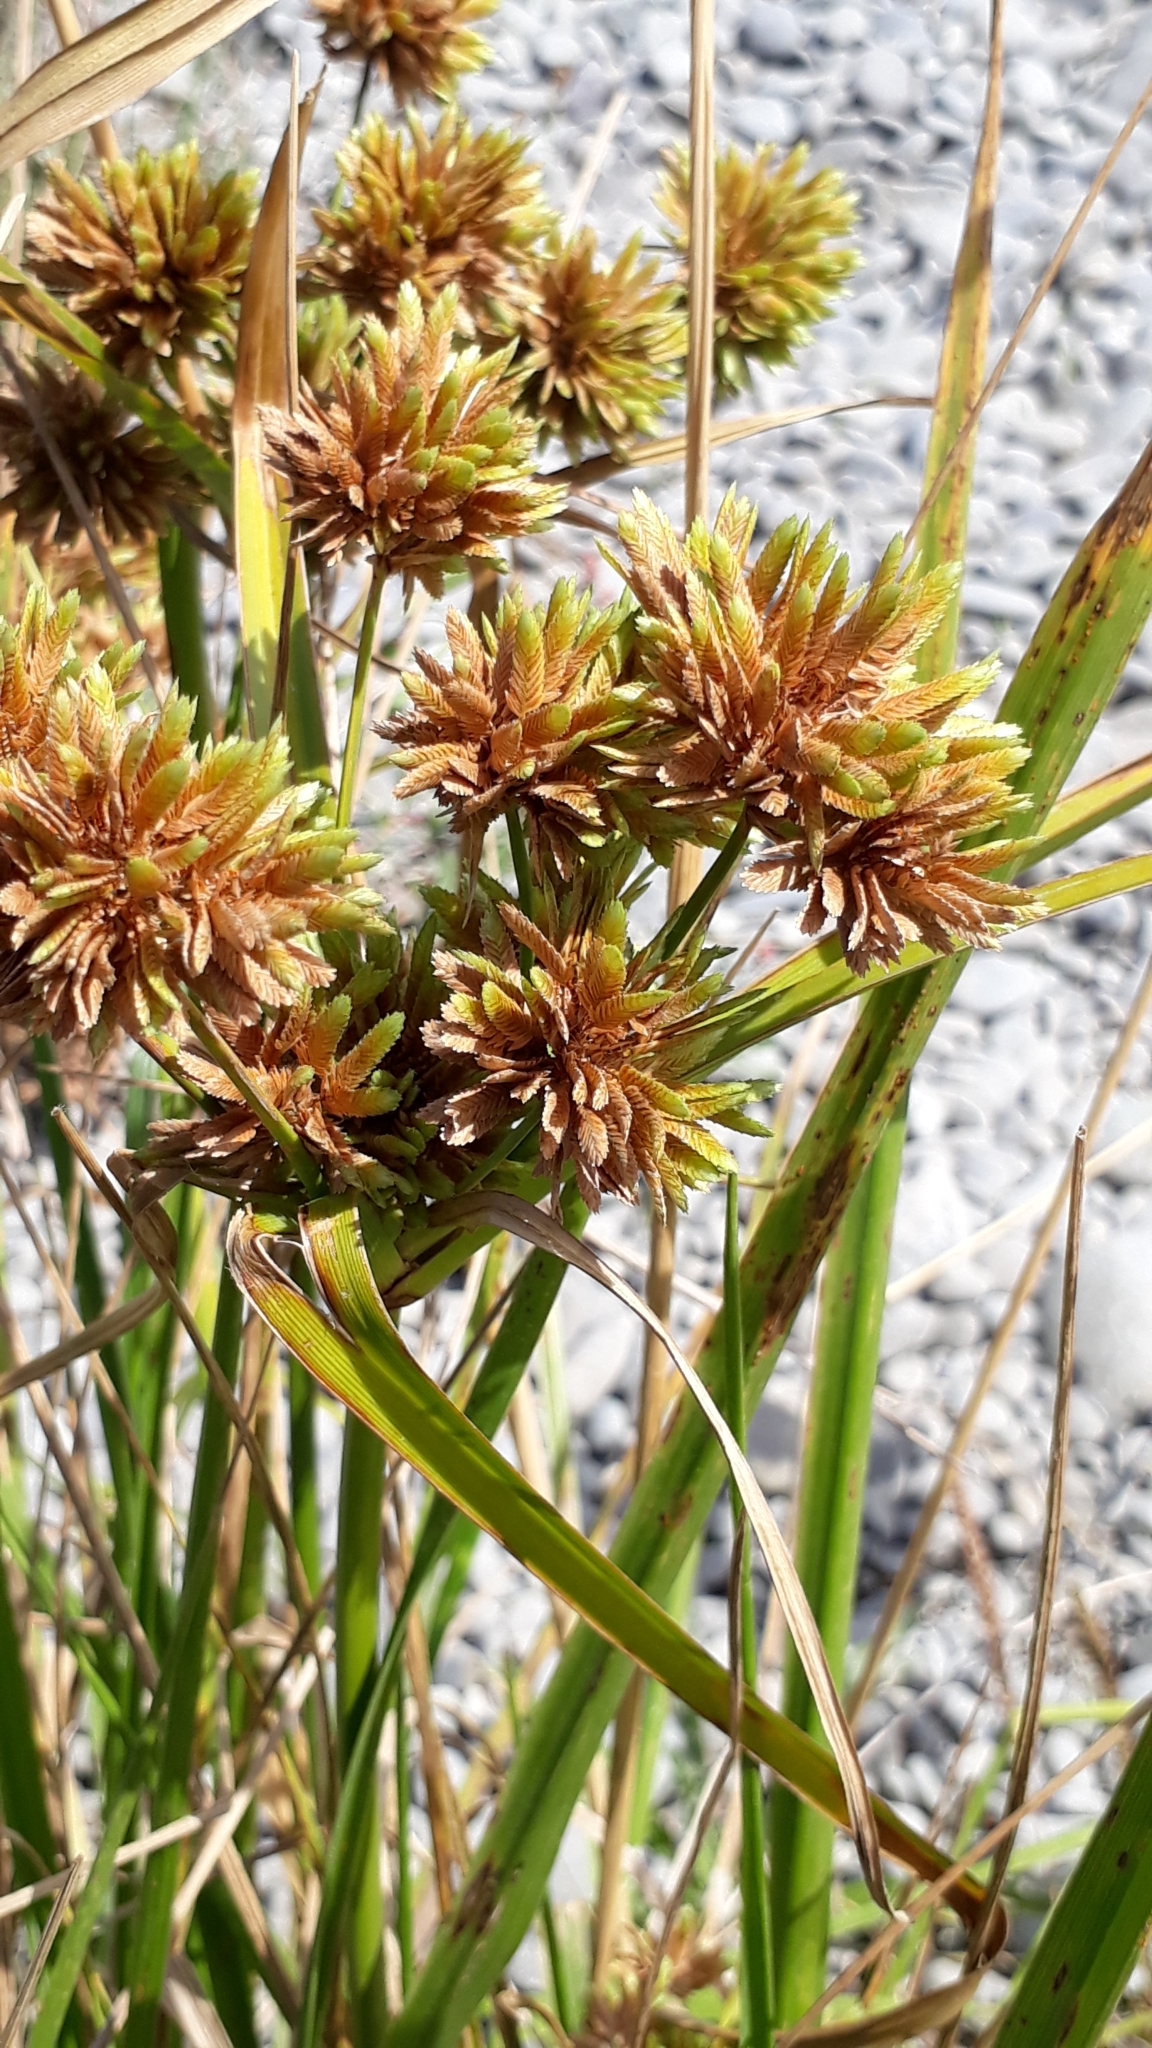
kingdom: Plantae
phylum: Tracheophyta
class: Liliopsida
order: Poales
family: Cyperaceae
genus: Cyperus
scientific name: Cyperus eragrostis
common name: Tall flatsedge
